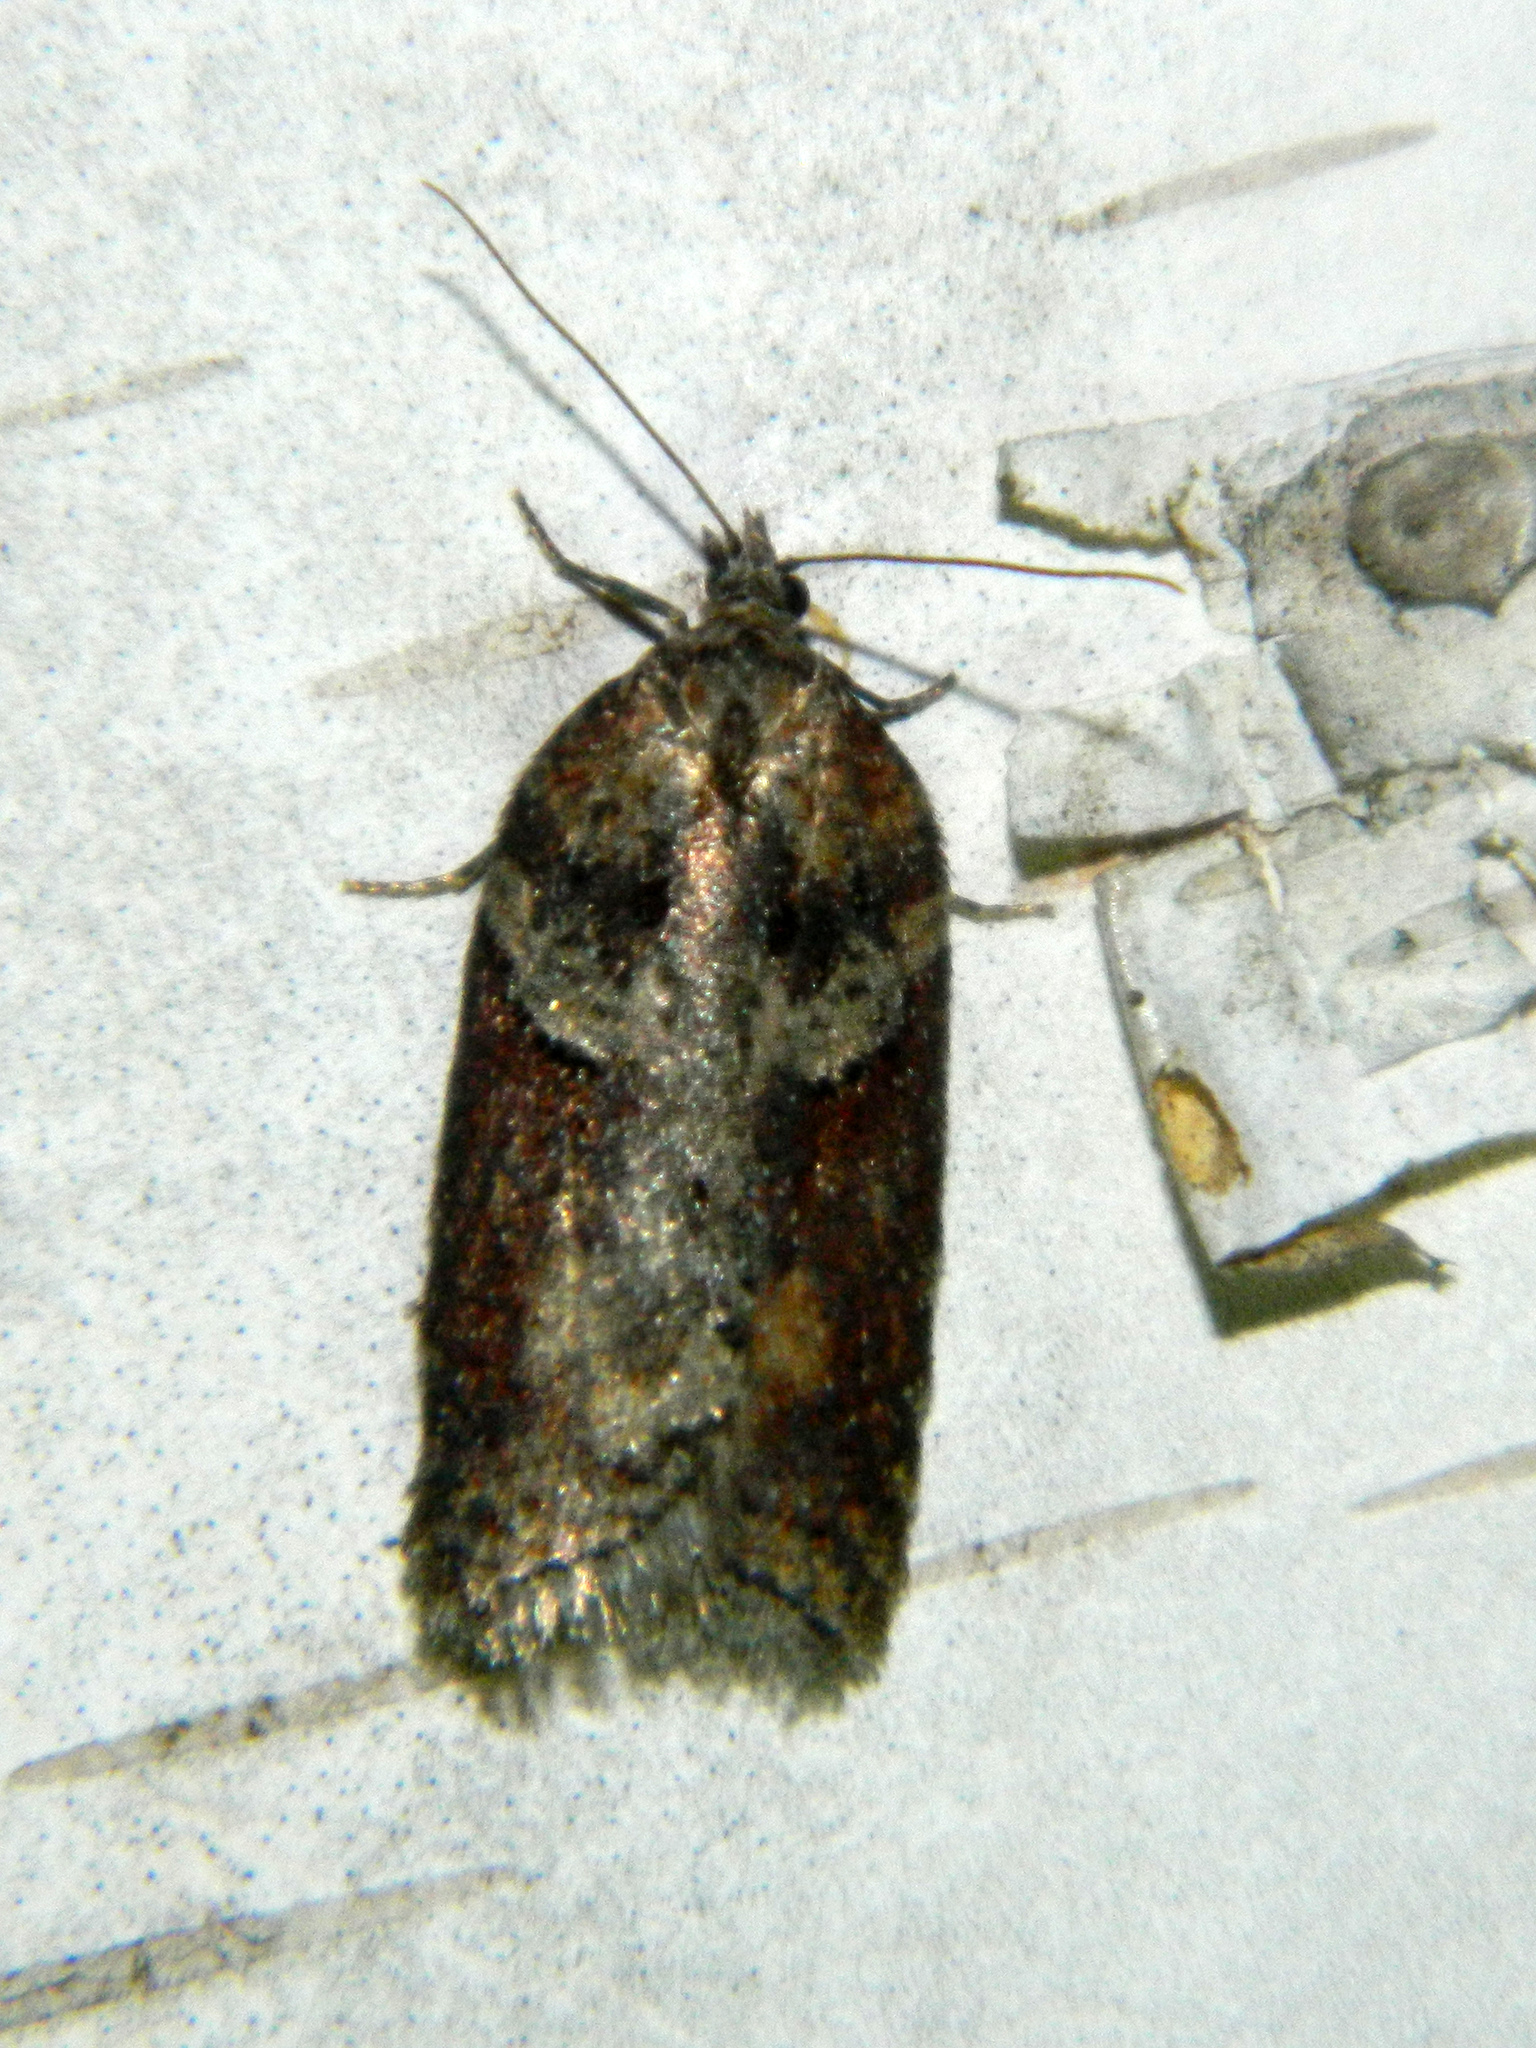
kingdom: Animalia
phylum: Arthropoda
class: Insecta
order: Lepidoptera
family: Tortricidae
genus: Acleris
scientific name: Acleris celiana
